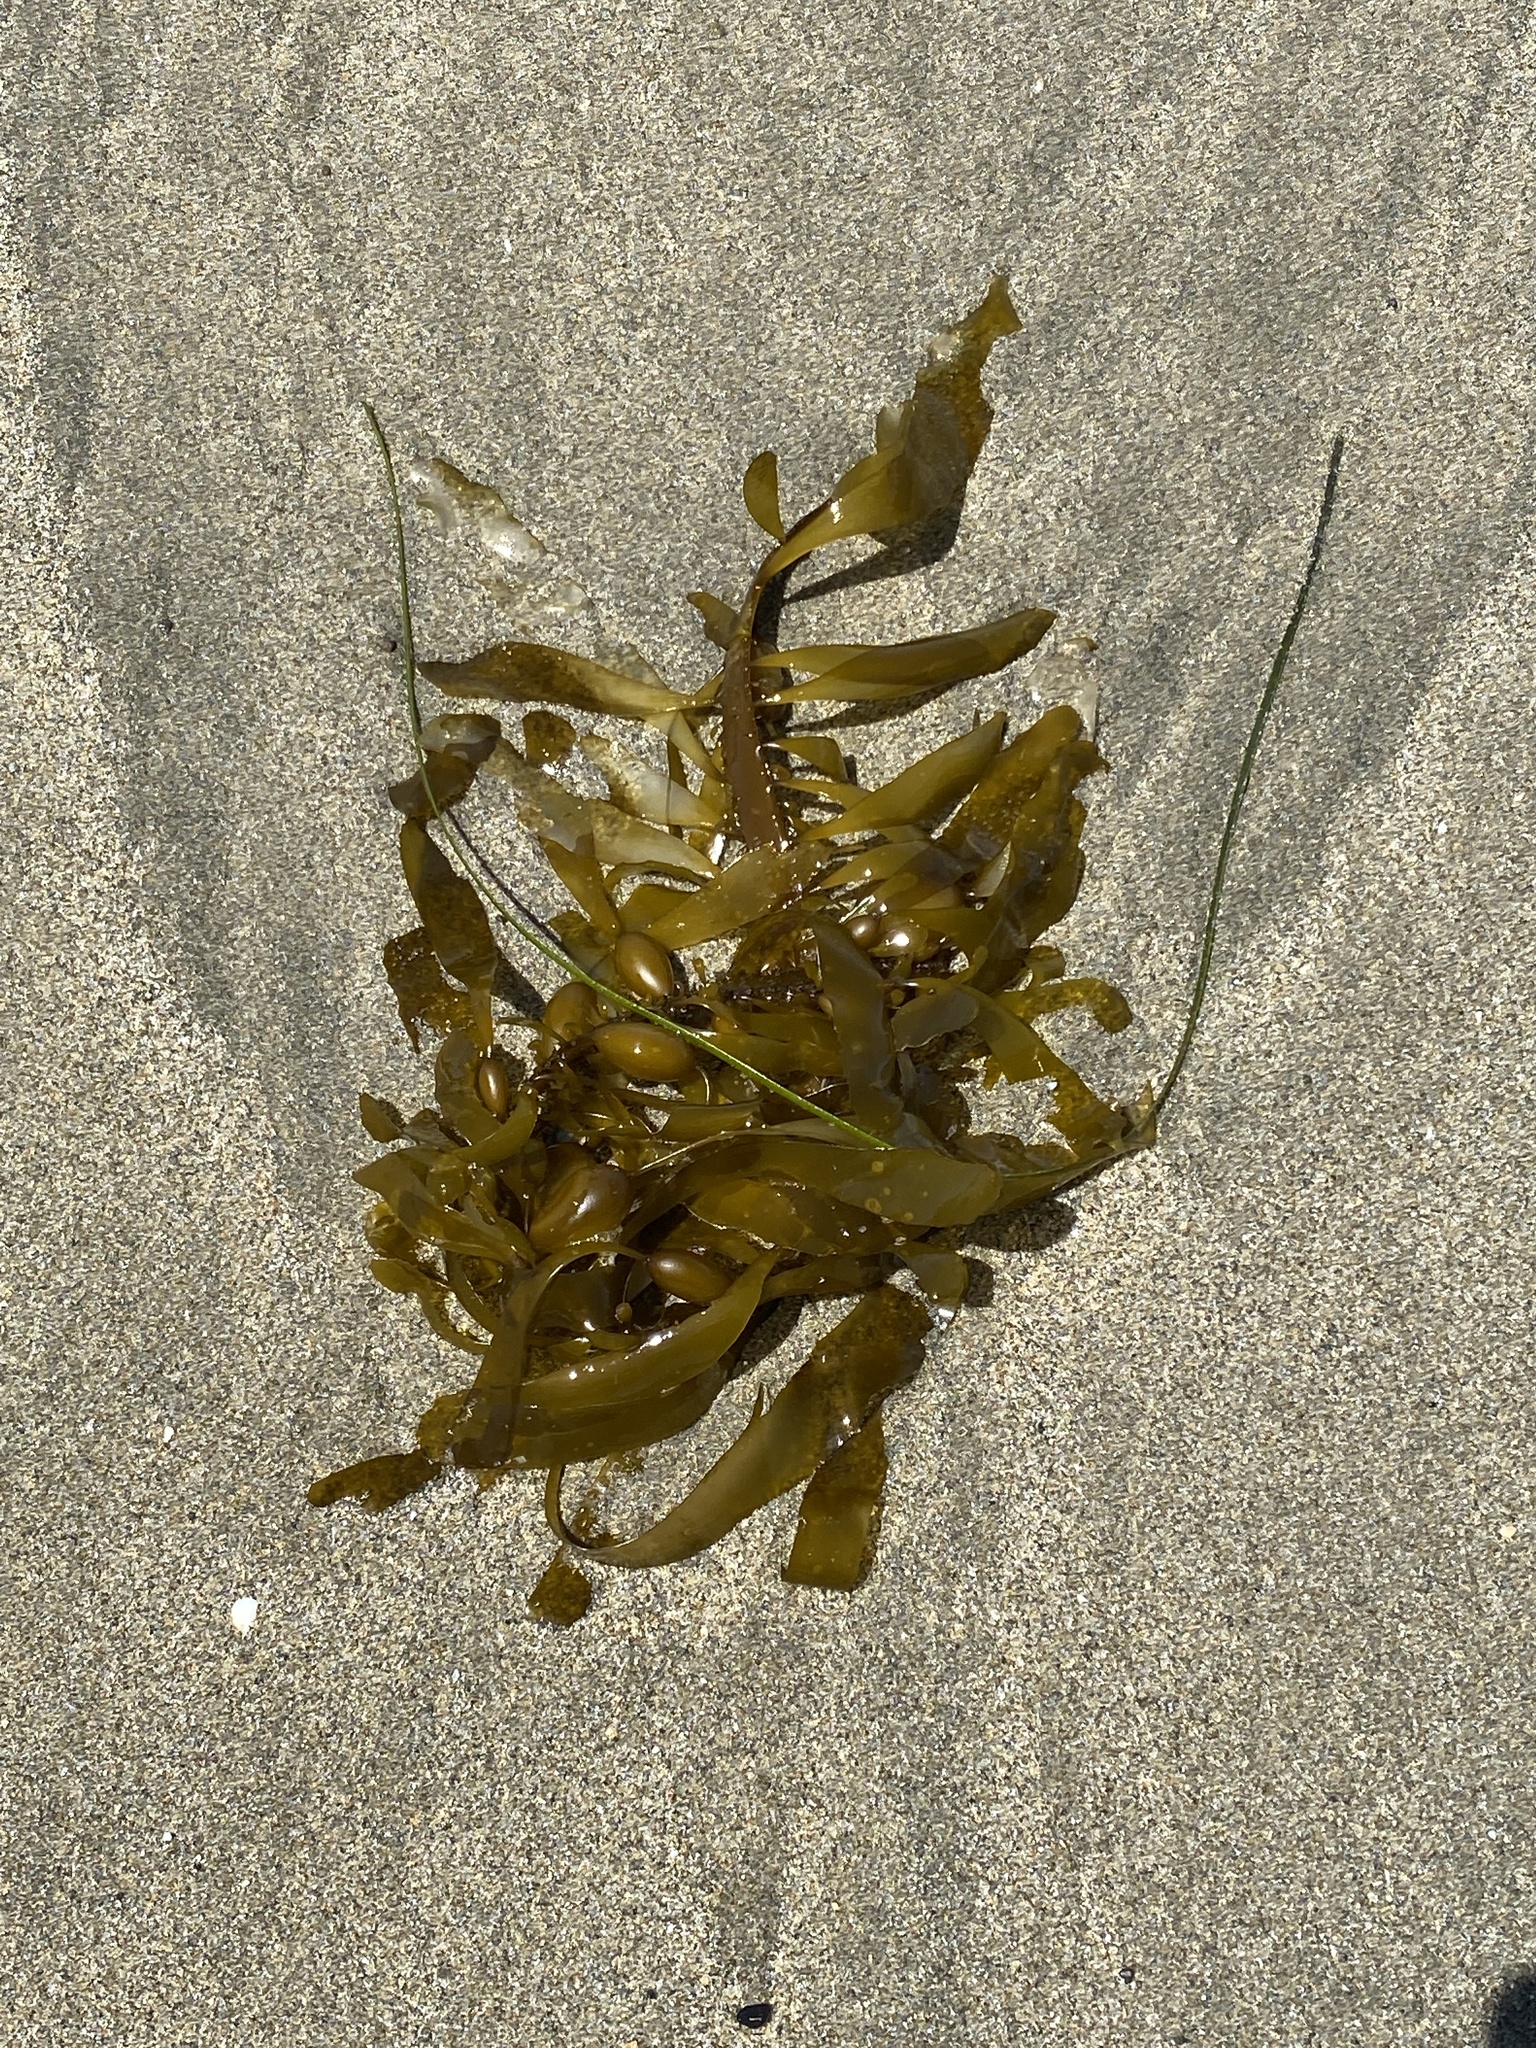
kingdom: Chromista
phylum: Ochrophyta
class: Phaeophyceae
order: Laminariales
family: Lessoniaceae
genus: Egregia
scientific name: Egregia menziesii
